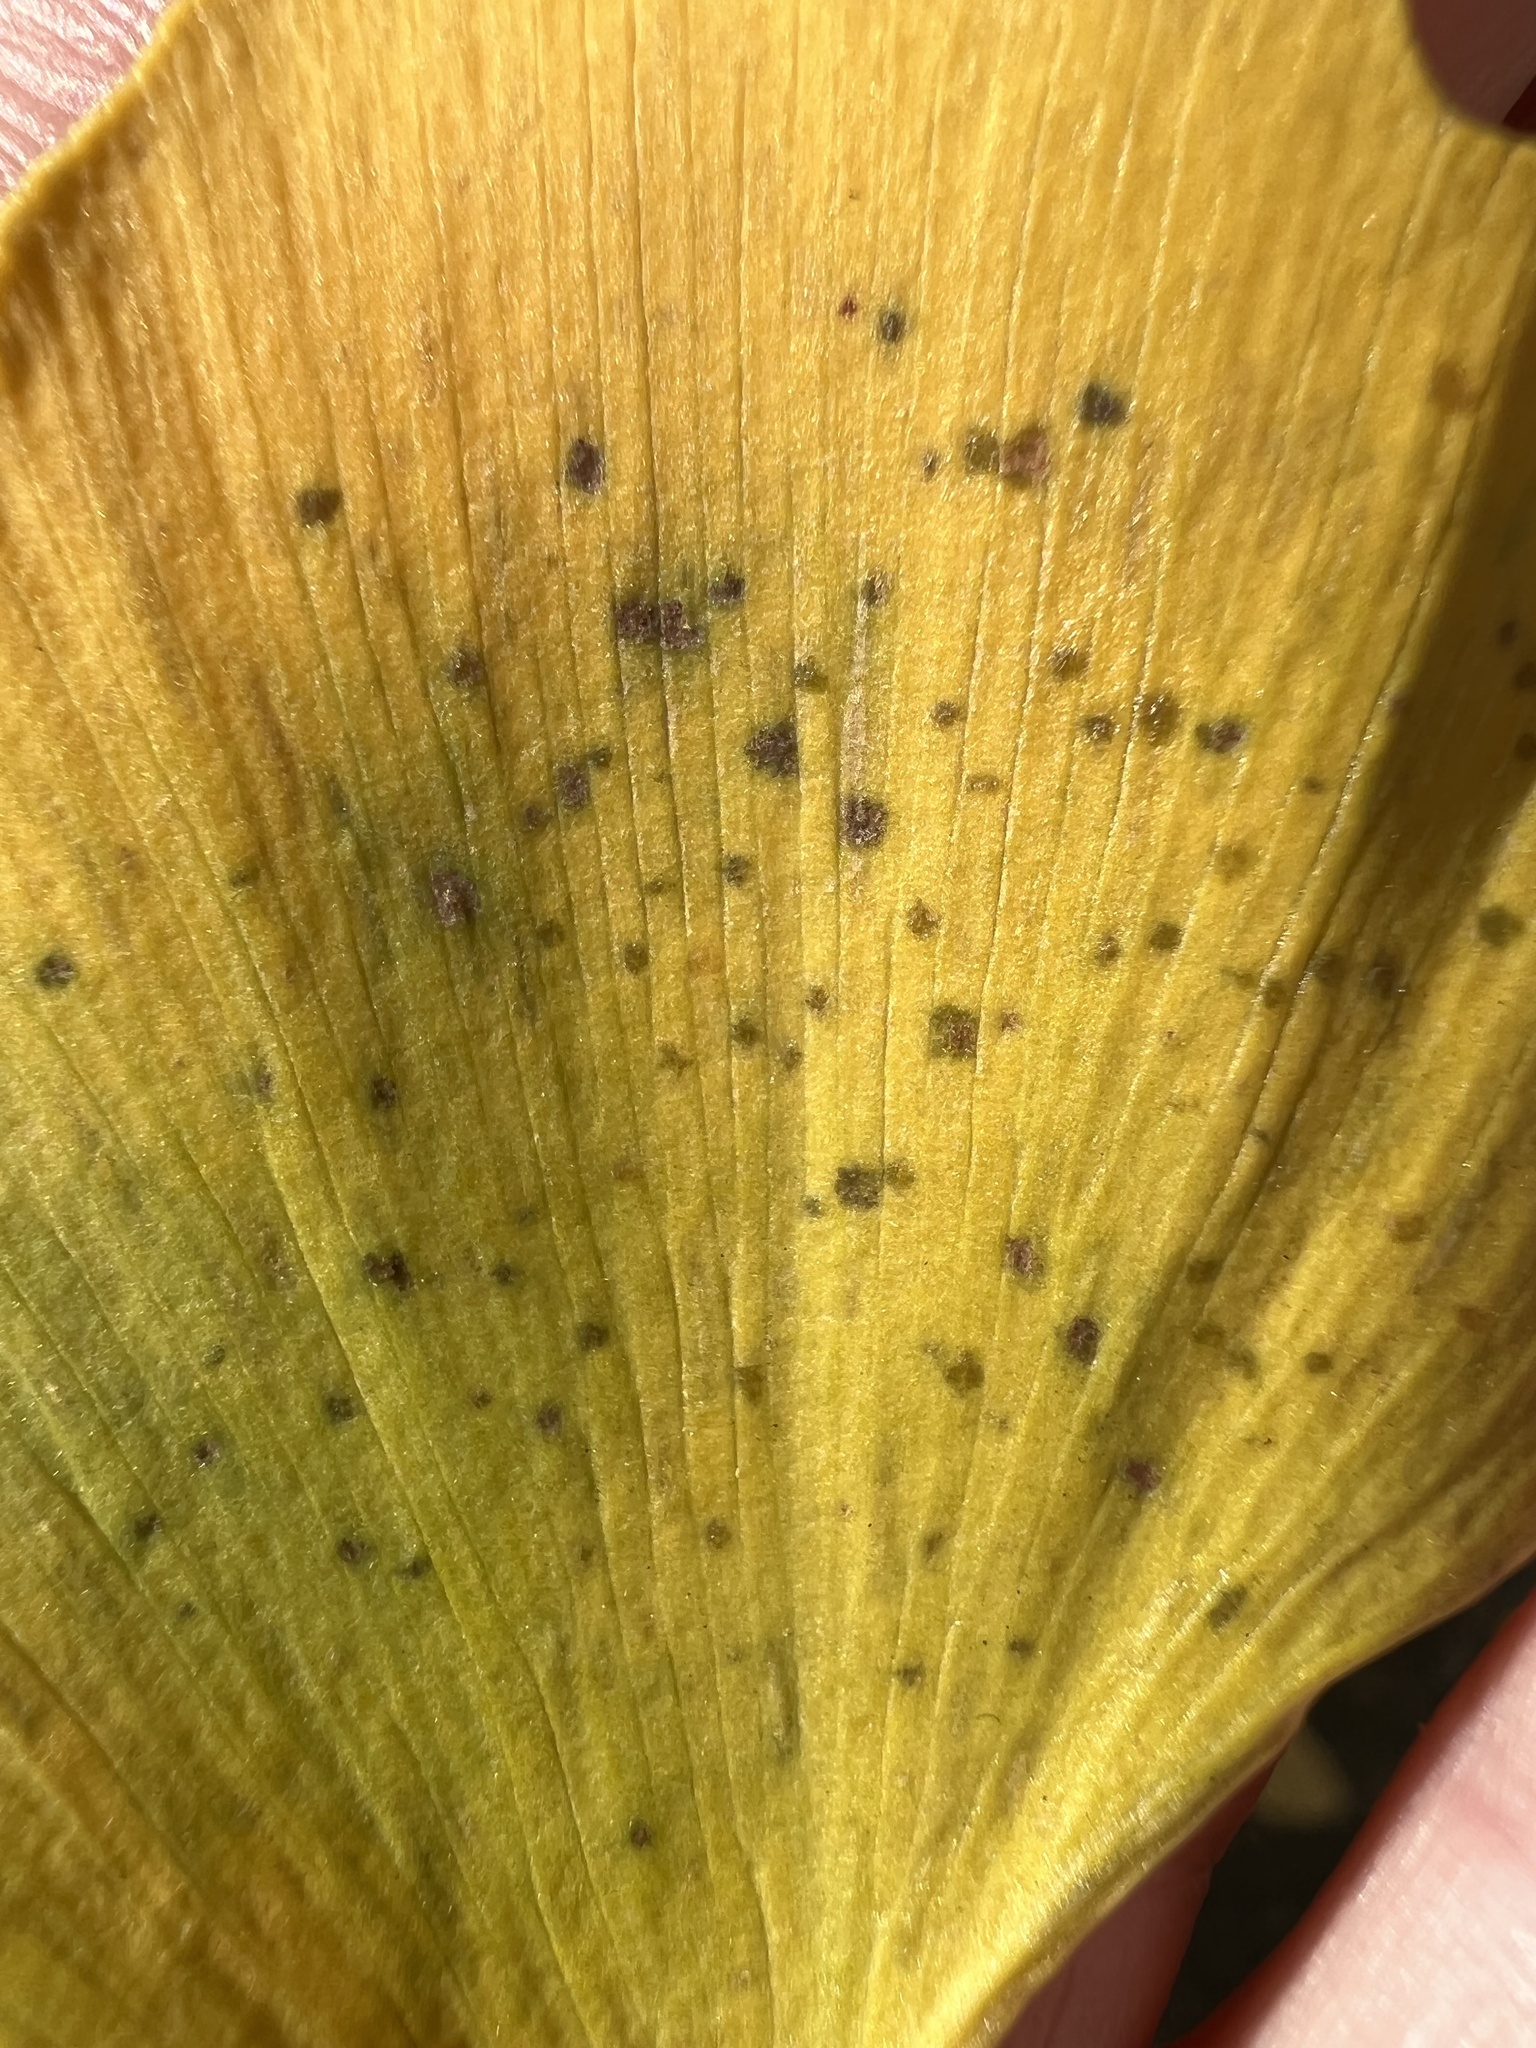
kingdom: Fungi
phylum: Basidiomycota
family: Bartheletiaceae
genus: Bartheletia
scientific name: Bartheletia paradoxa
